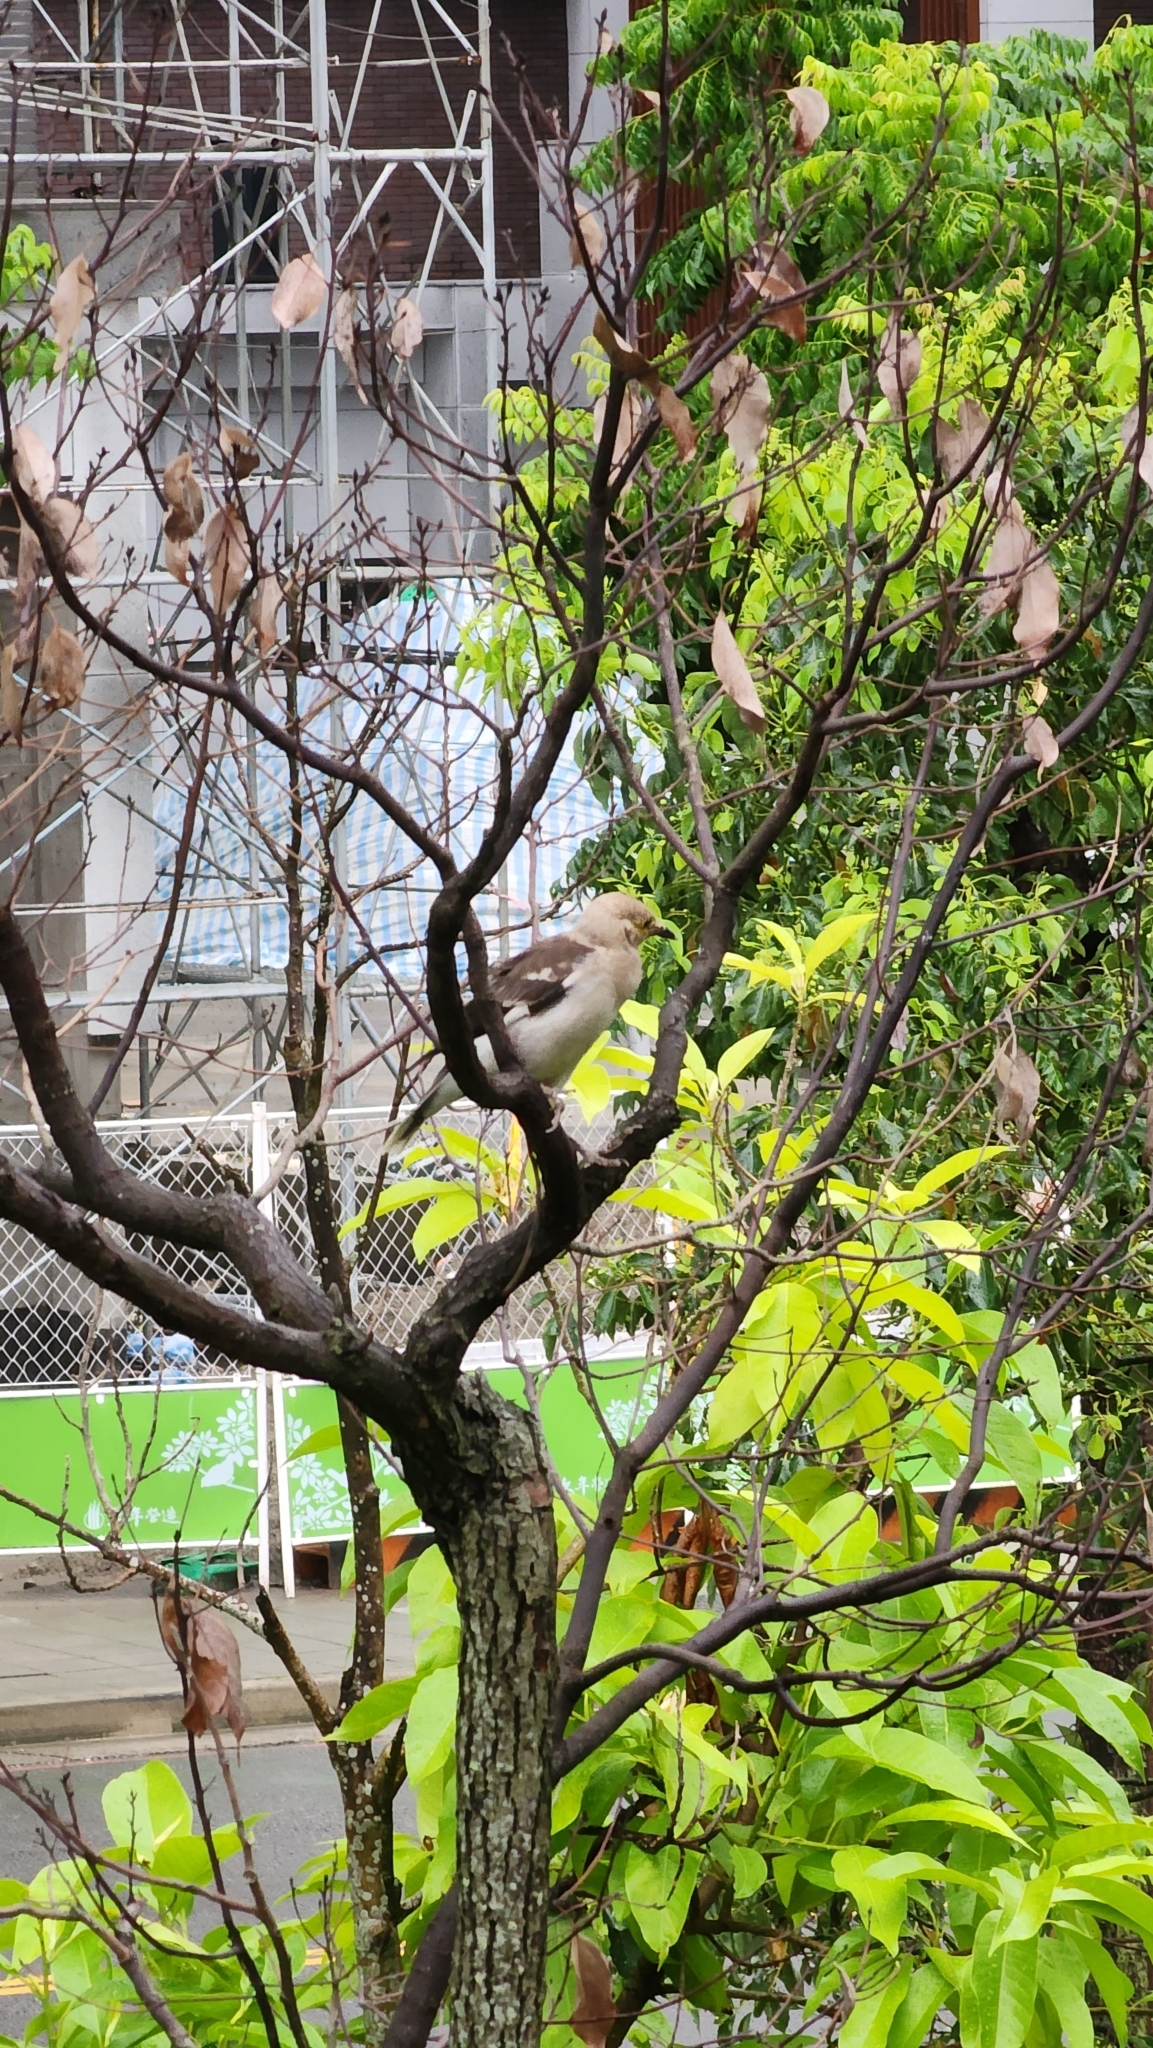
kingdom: Animalia
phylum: Chordata
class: Aves
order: Passeriformes
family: Sturnidae
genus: Gracupica
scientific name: Gracupica nigricollis
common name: Black-collared starling
